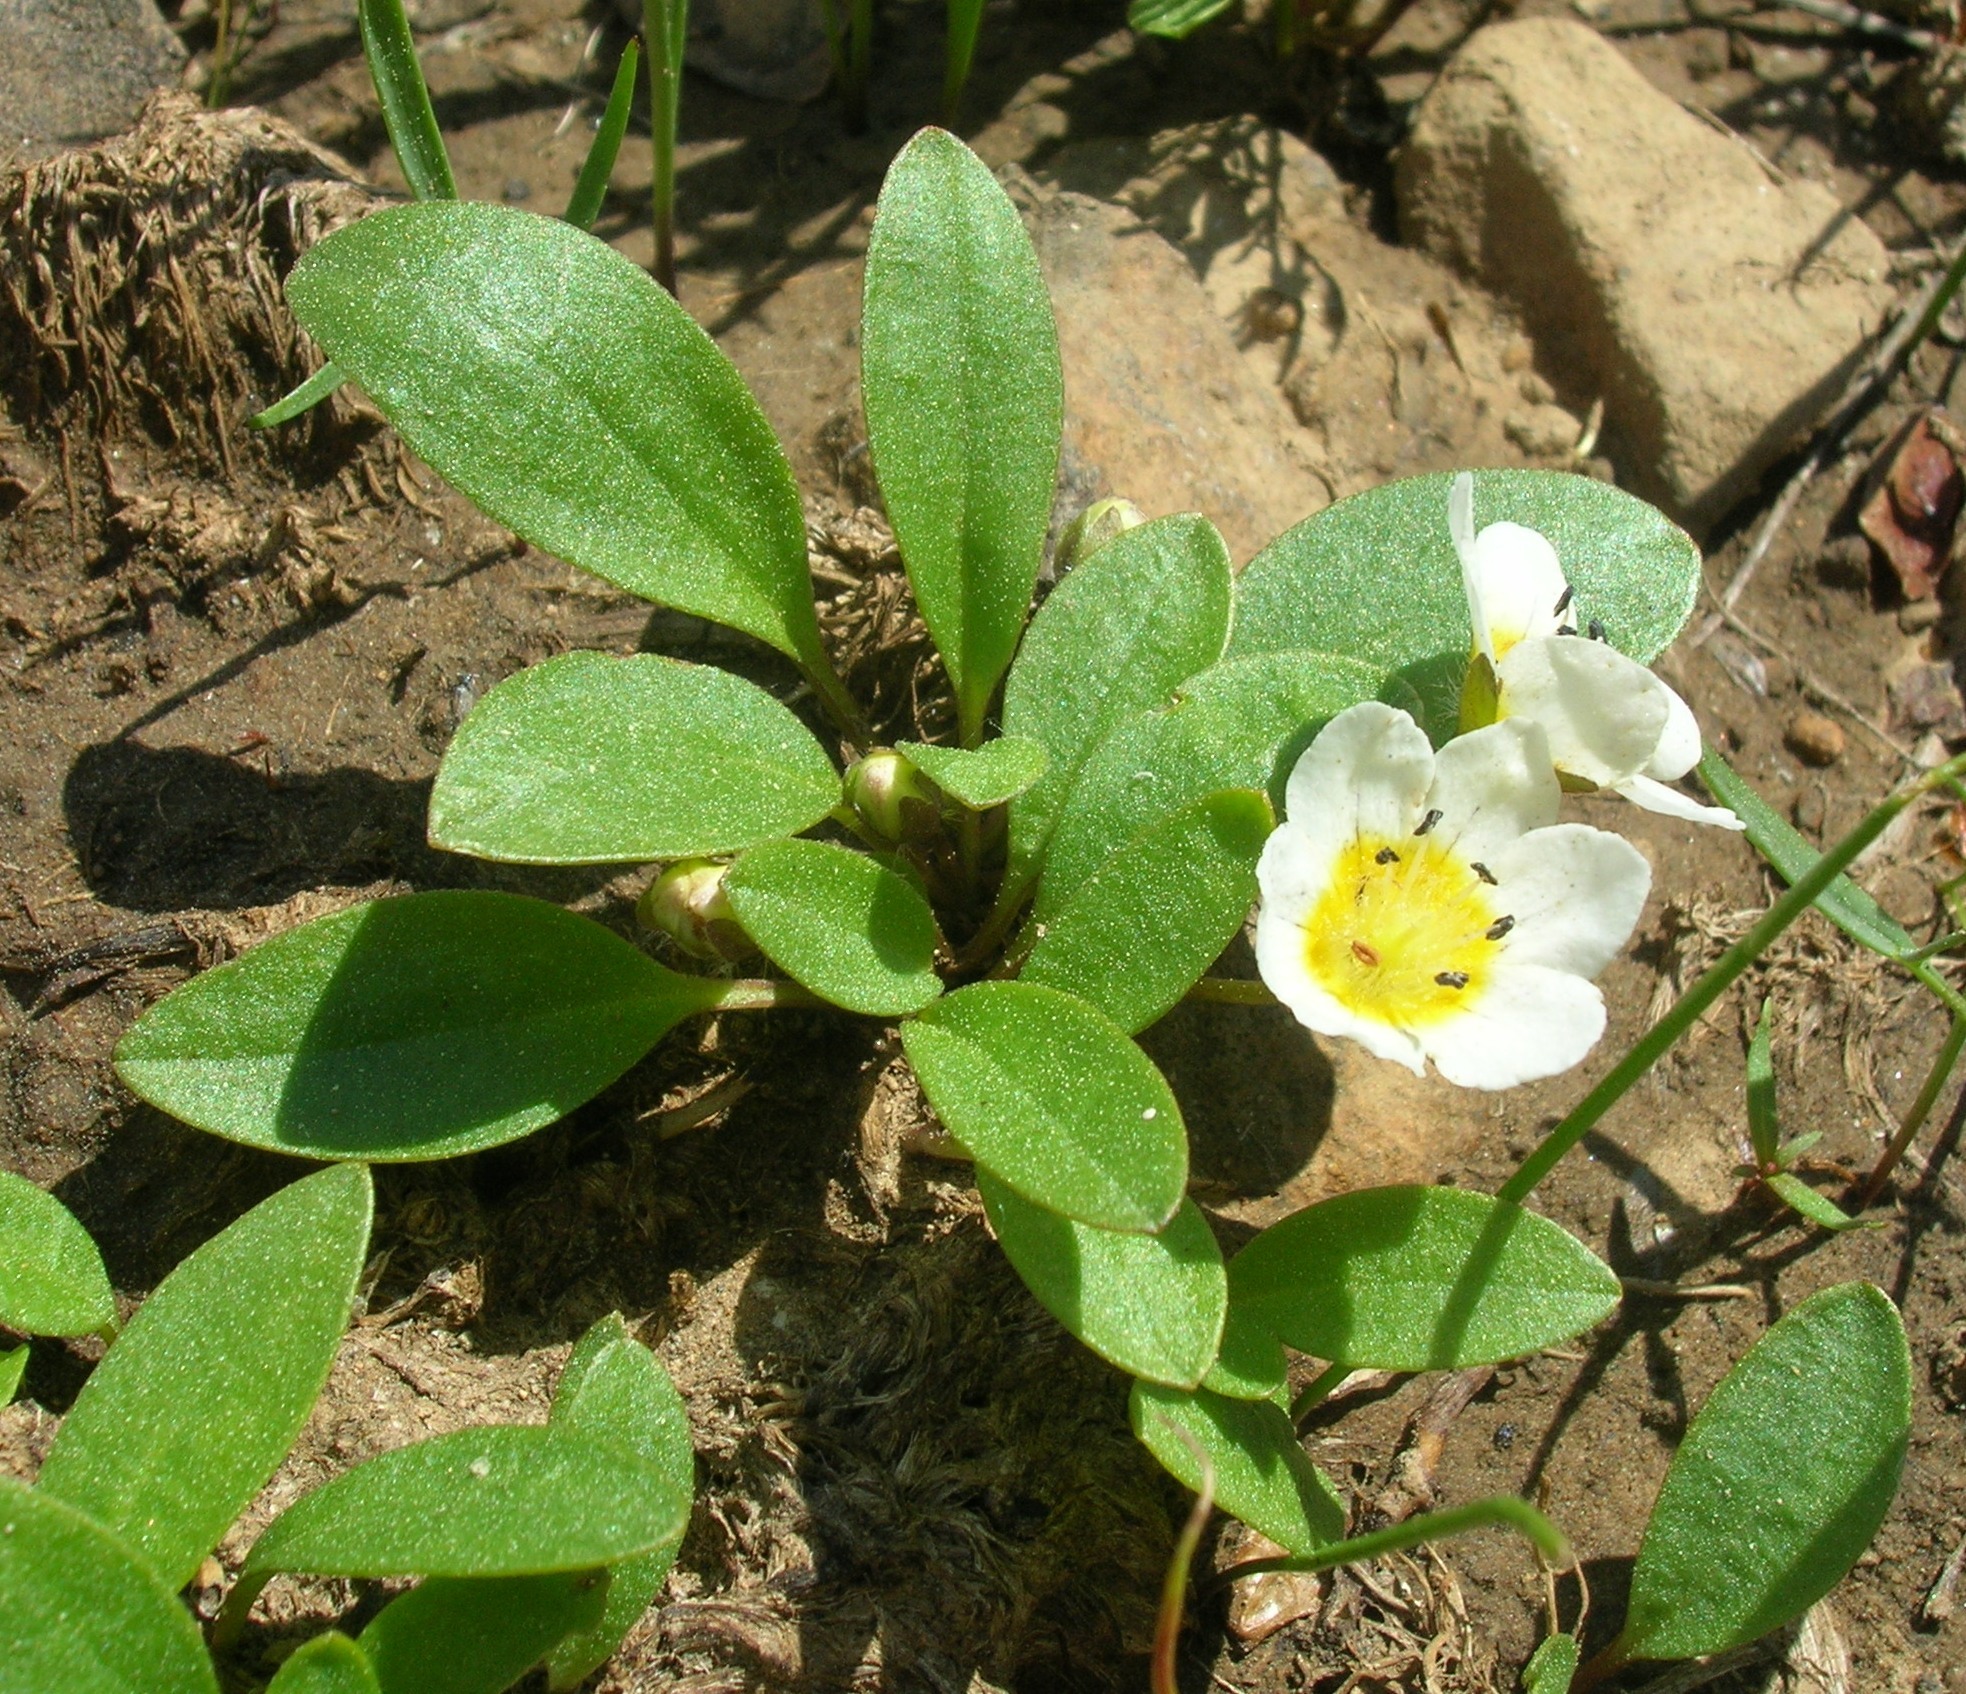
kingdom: Plantae
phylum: Tracheophyta
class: Magnoliopsida
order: Boraginales
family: Hydrophyllaceae
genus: Hesperochiron
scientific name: Hesperochiron pumilus
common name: Dwarf hesperochiron
